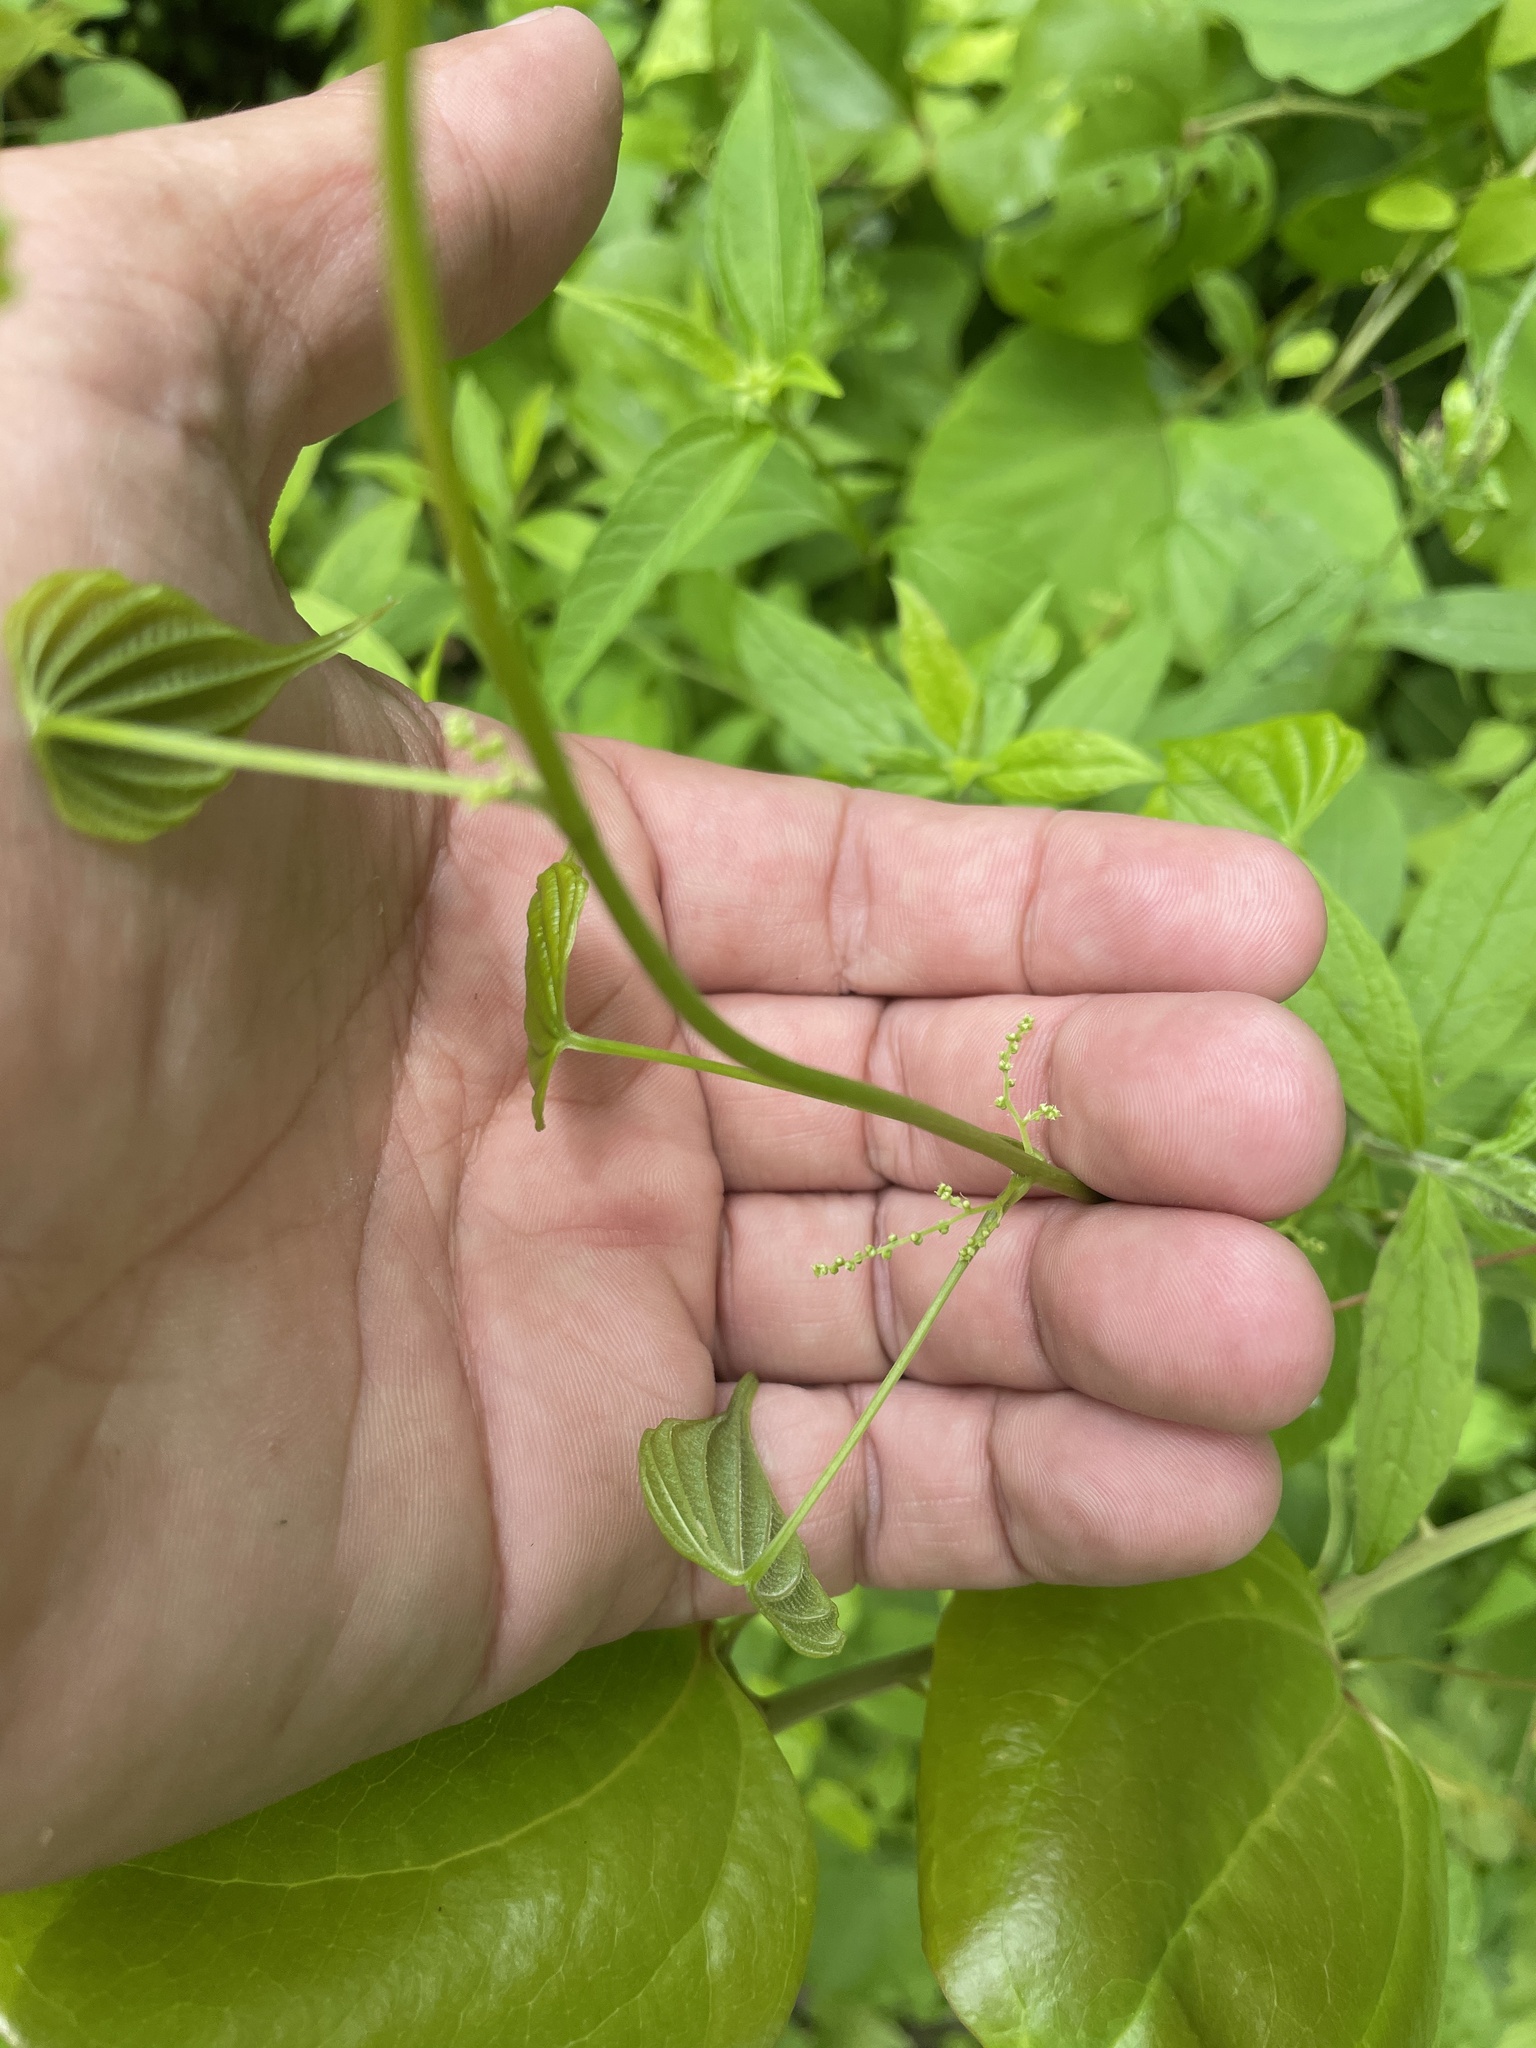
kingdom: Plantae
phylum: Tracheophyta
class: Liliopsida
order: Dioscoreales
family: Dioscoreaceae
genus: Dioscorea
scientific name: Dioscorea villosa
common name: Wild yam
